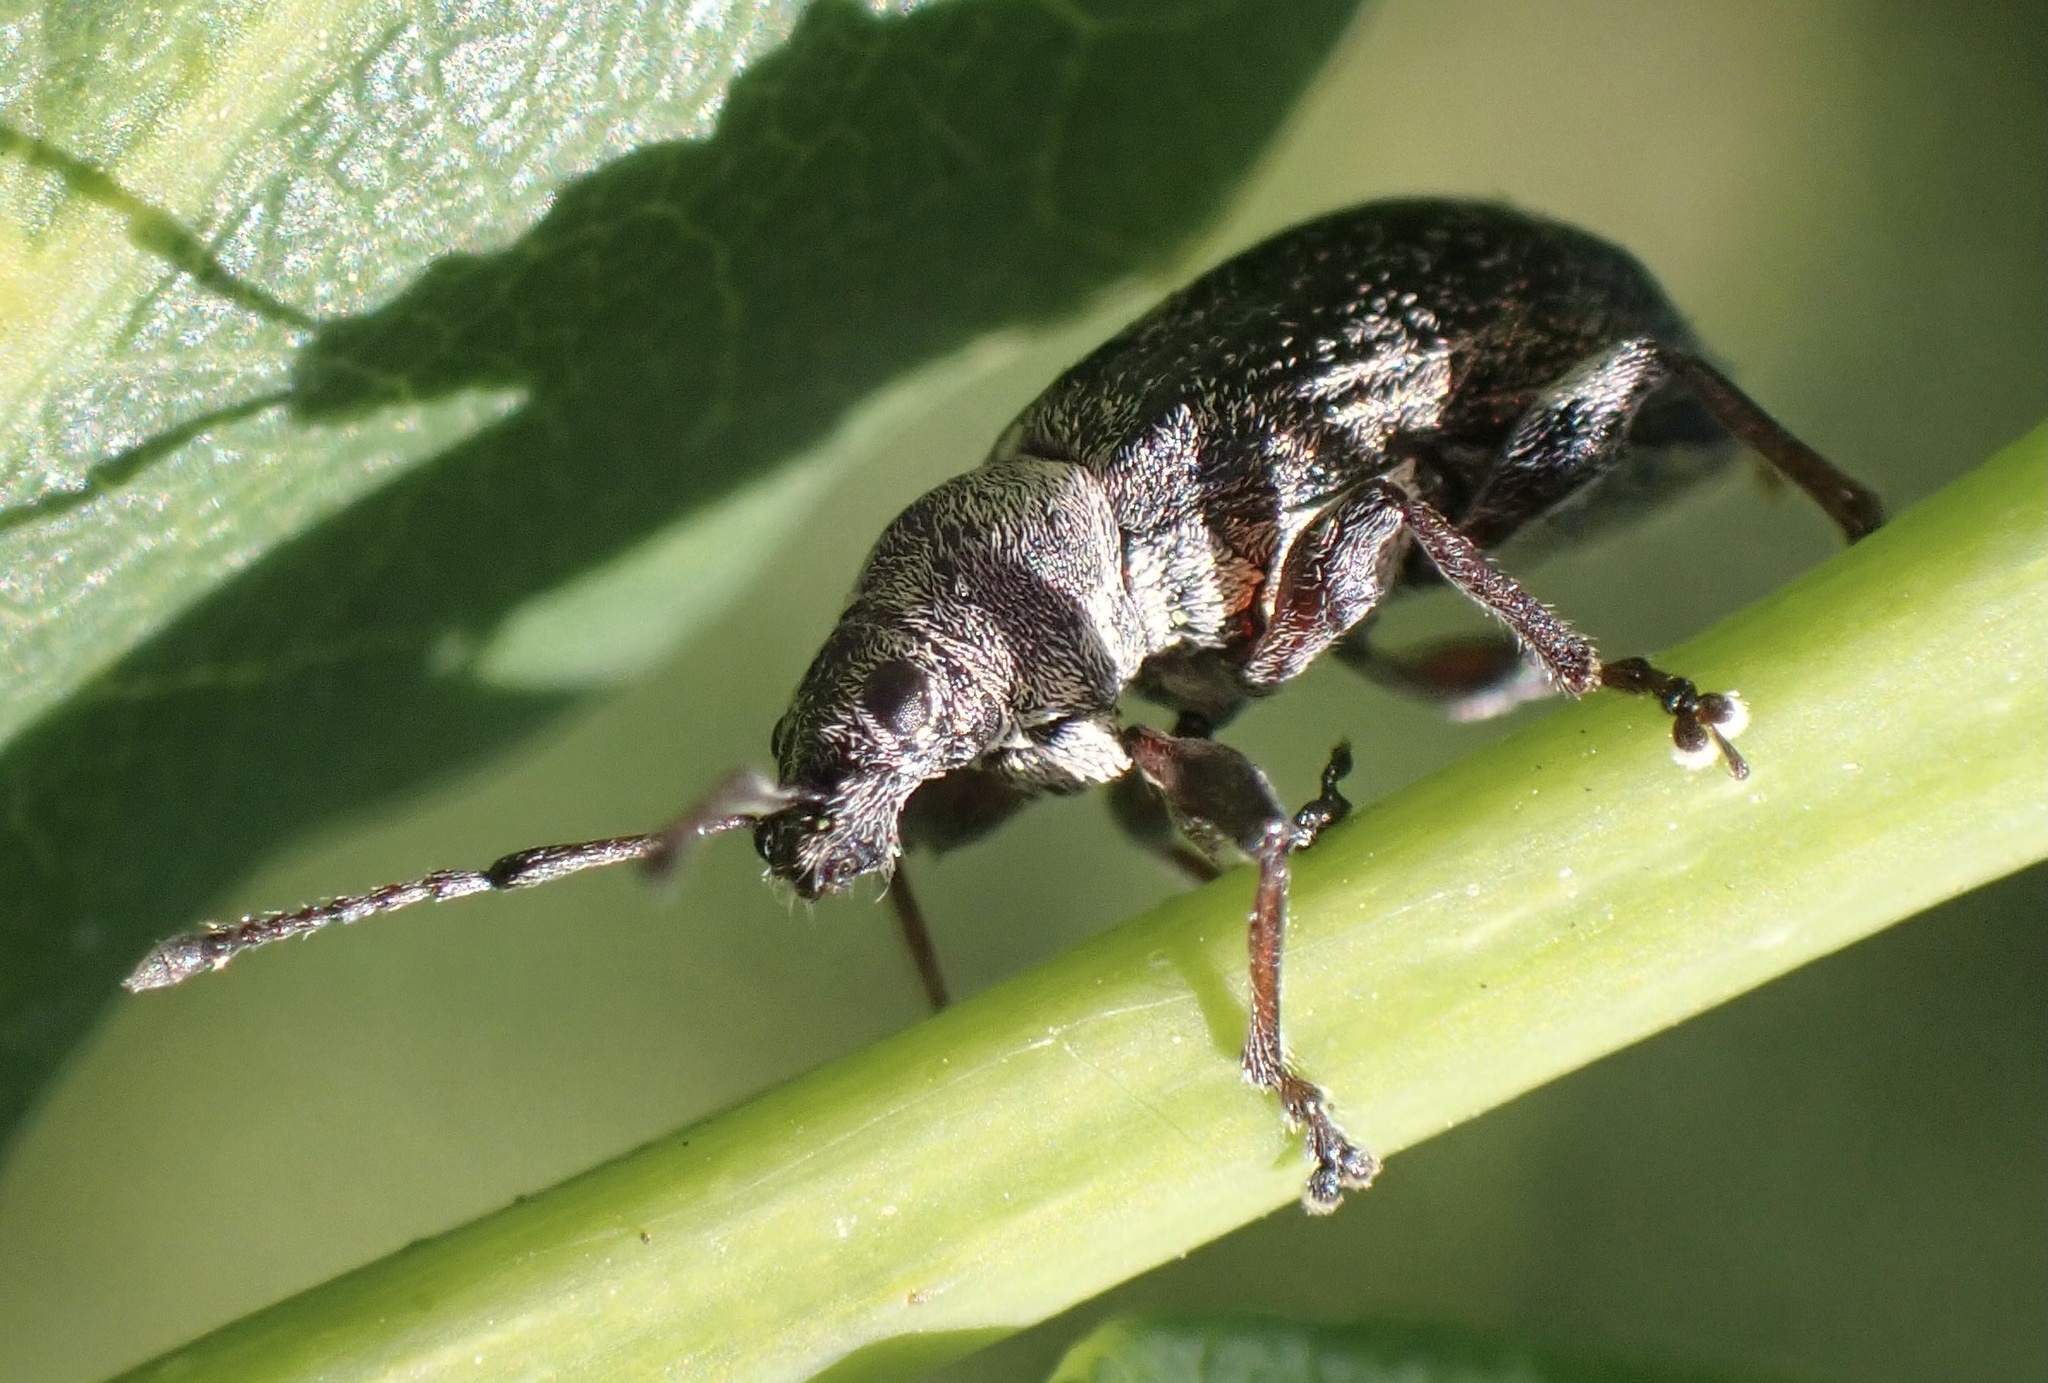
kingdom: Animalia
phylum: Arthropoda
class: Insecta
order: Coleoptera
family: Curculionidae
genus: Phyllobius
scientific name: Phyllobius pyri
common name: Common leaf weevil
